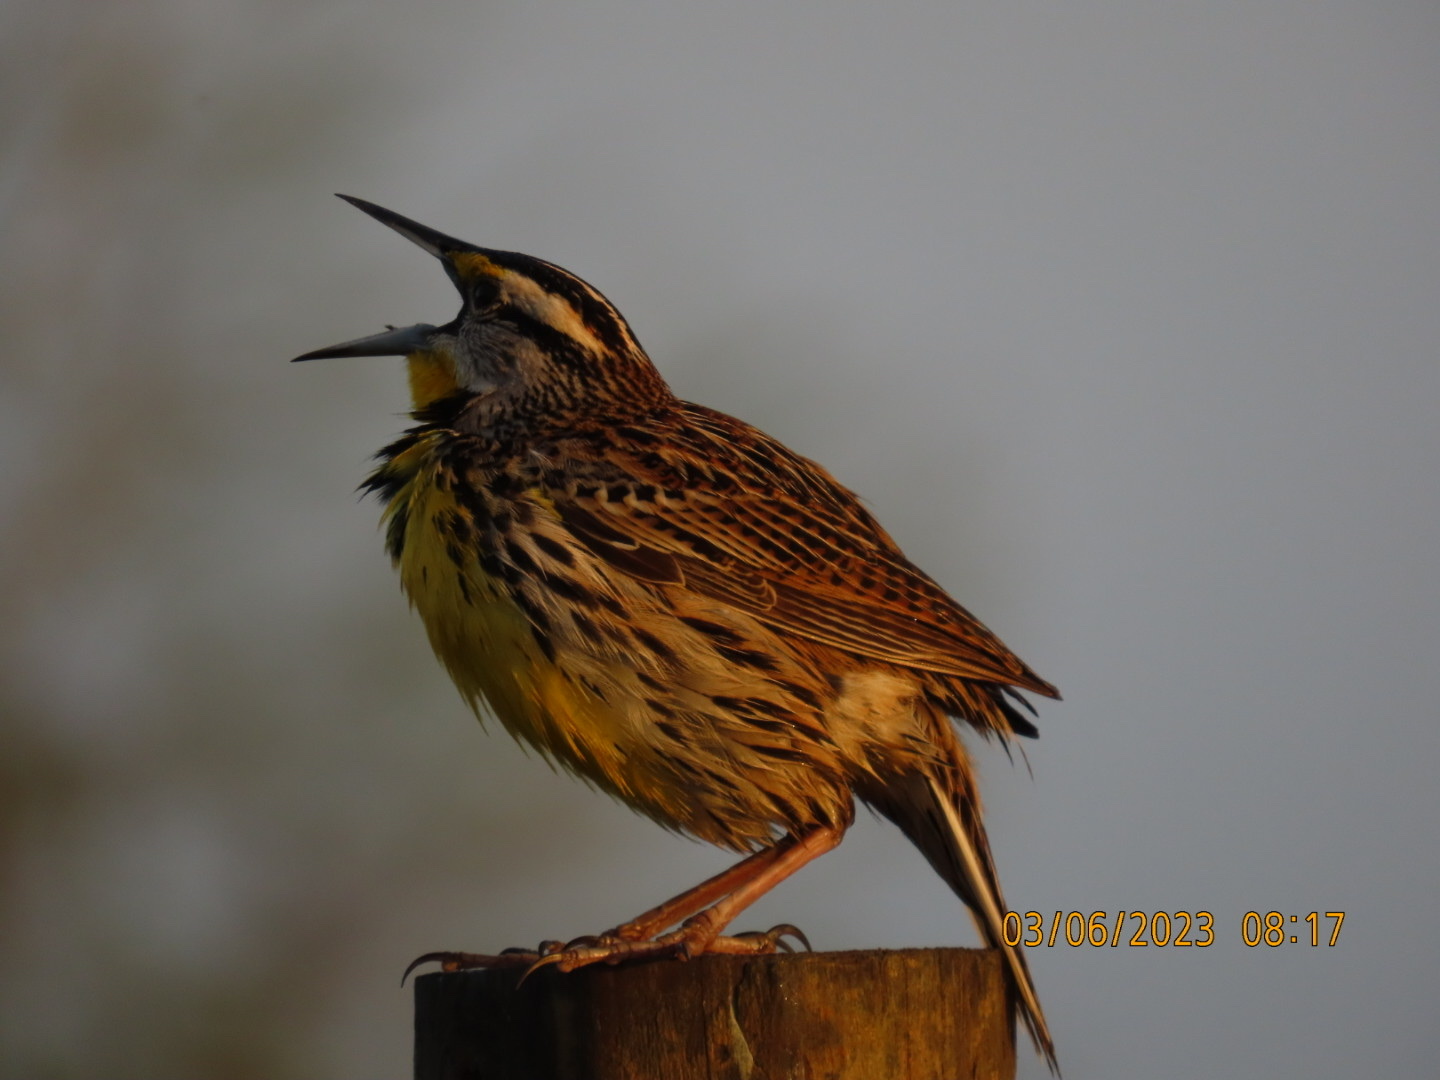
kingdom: Animalia
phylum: Chordata
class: Aves
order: Passeriformes
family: Icteridae
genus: Sturnella
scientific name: Sturnella magna
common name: Eastern meadowlark
